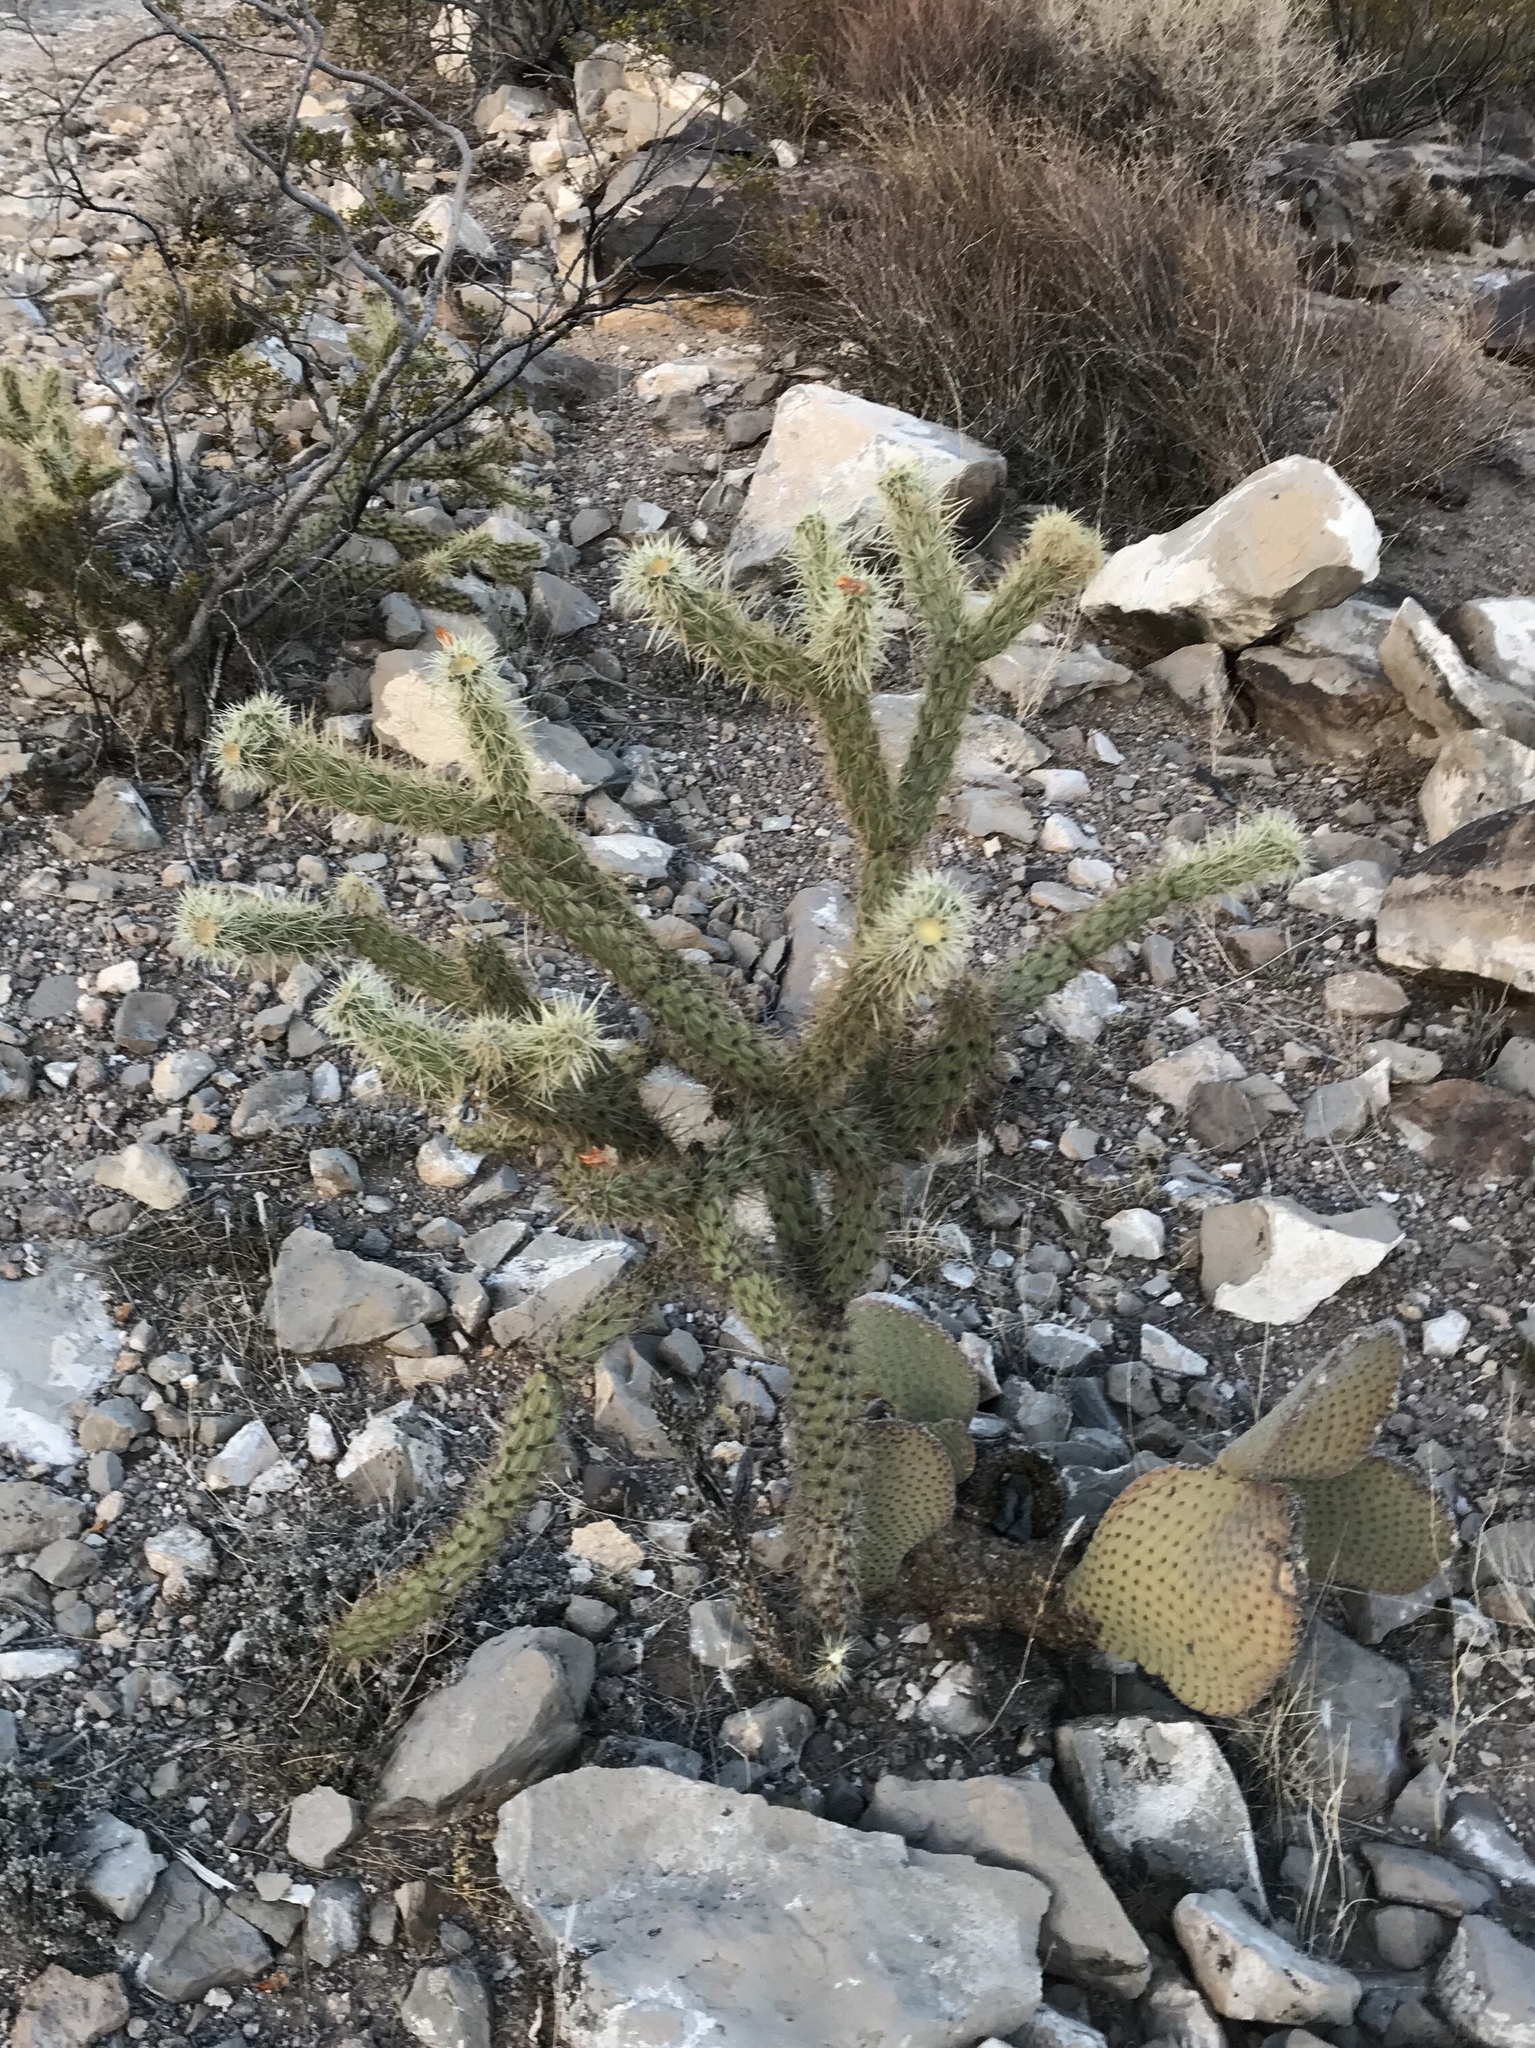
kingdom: Plantae
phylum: Tracheophyta
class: Magnoliopsida
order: Caryophyllales
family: Cactaceae
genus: Cylindropuntia
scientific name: Cylindropuntia acanthocarpa
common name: Buckhorn cholla
